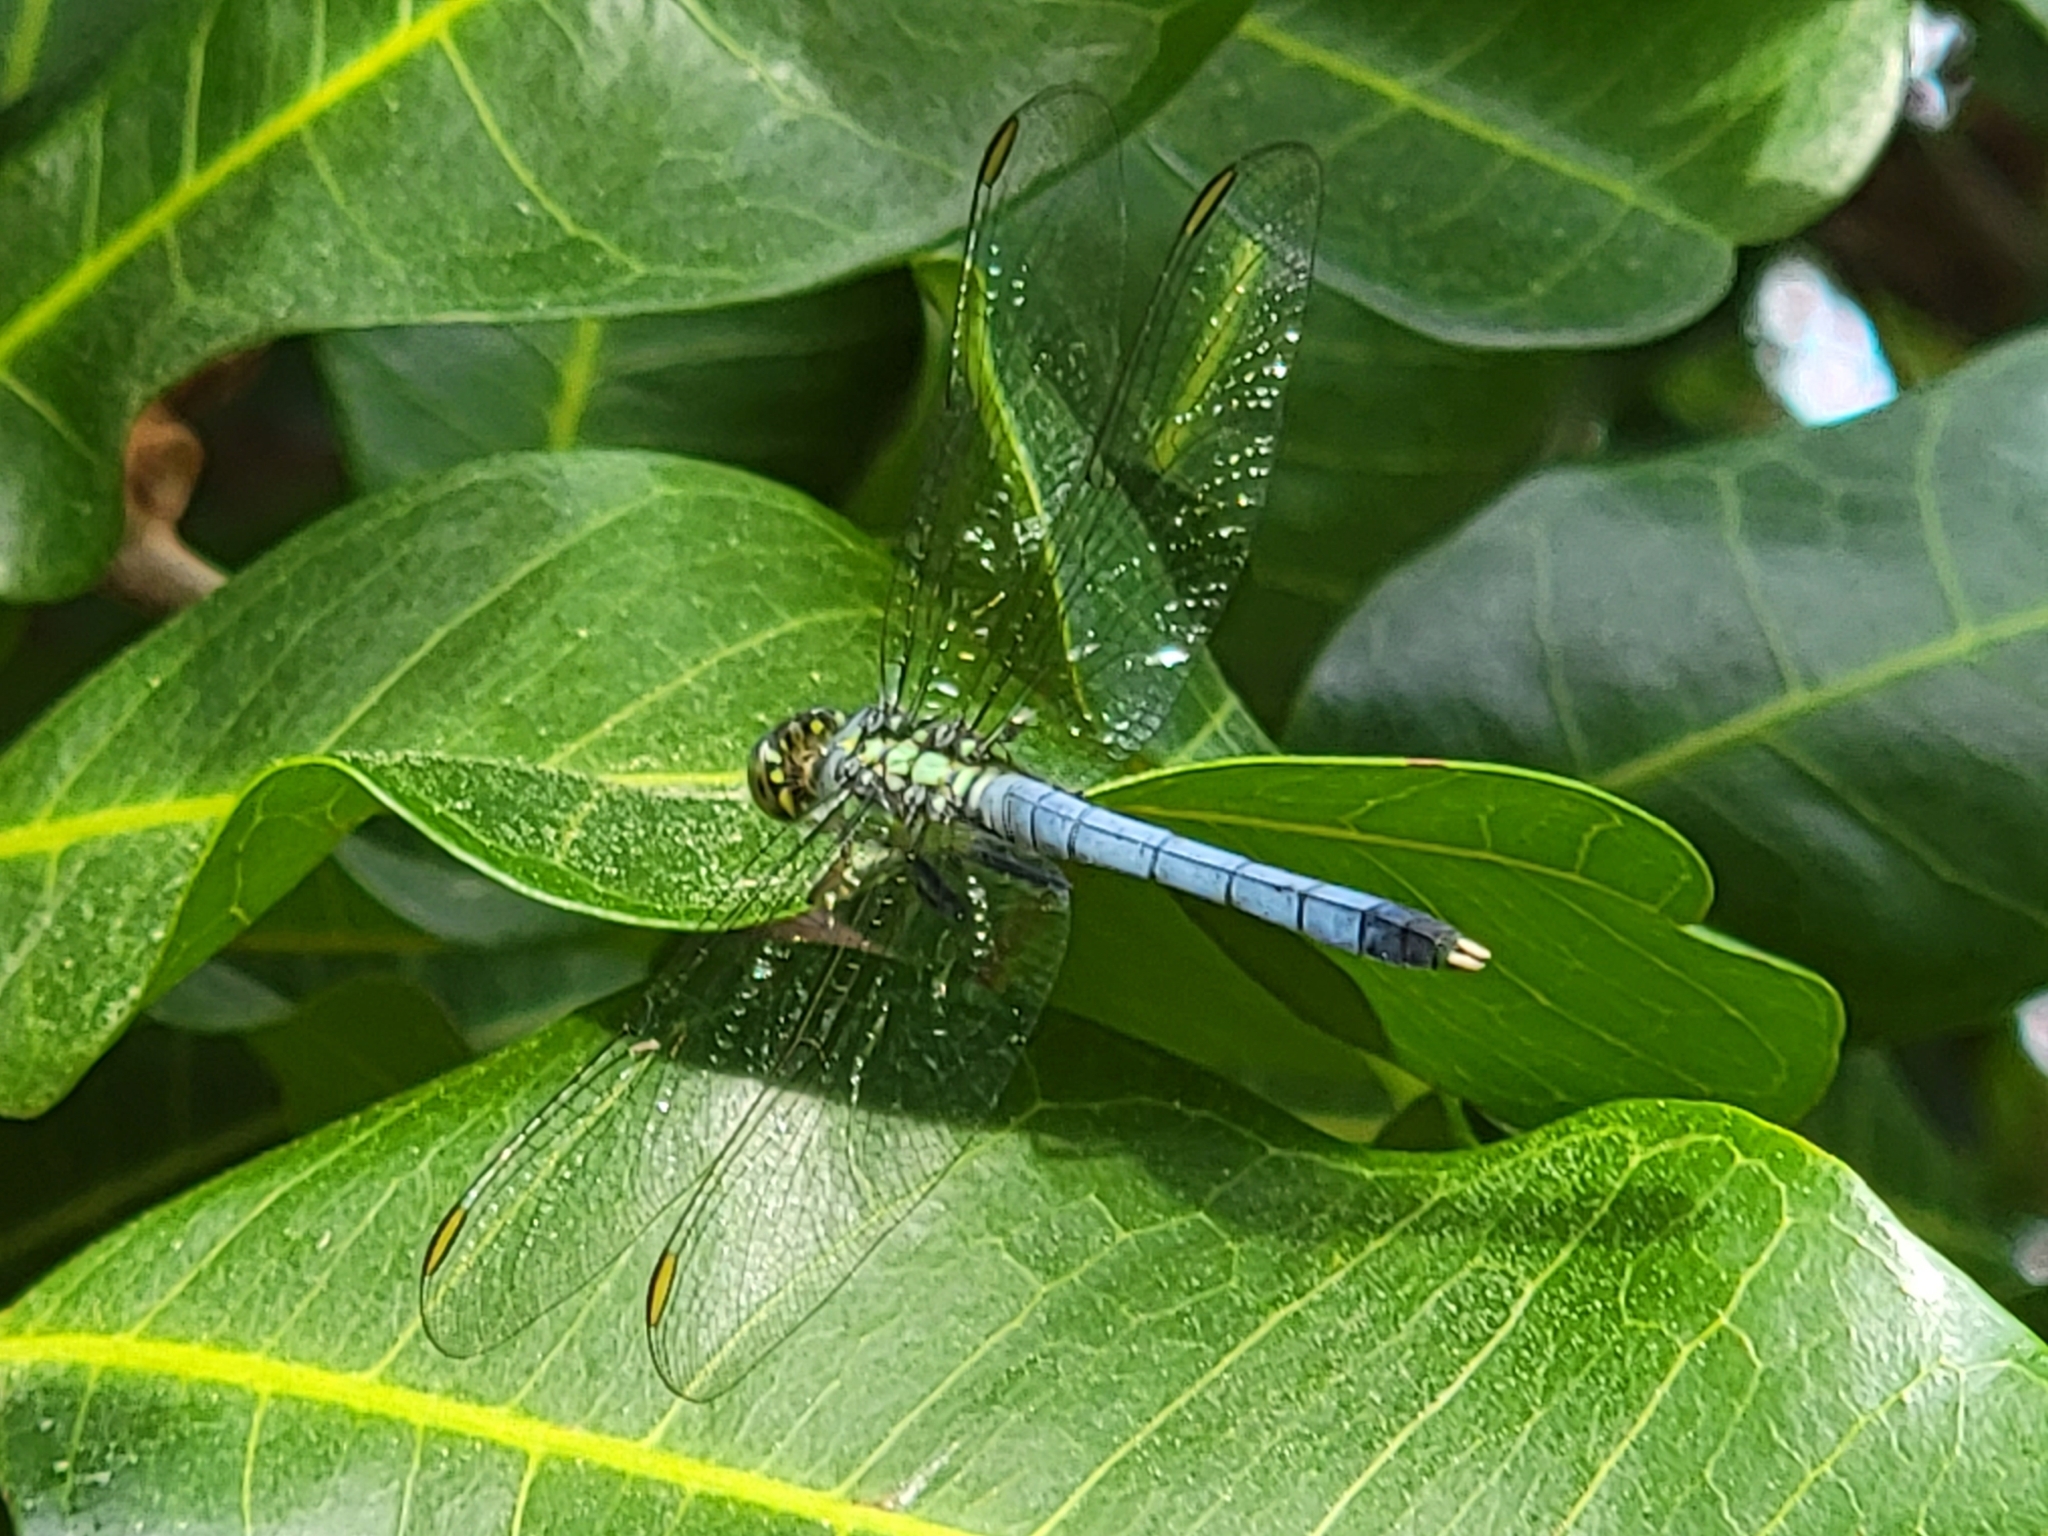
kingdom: Animalia
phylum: Arthropoda
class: Insecta
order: Odonata
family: Libellulidae
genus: Erythemis
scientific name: Erythemis simplicicollis
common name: Eastern pondhawk
